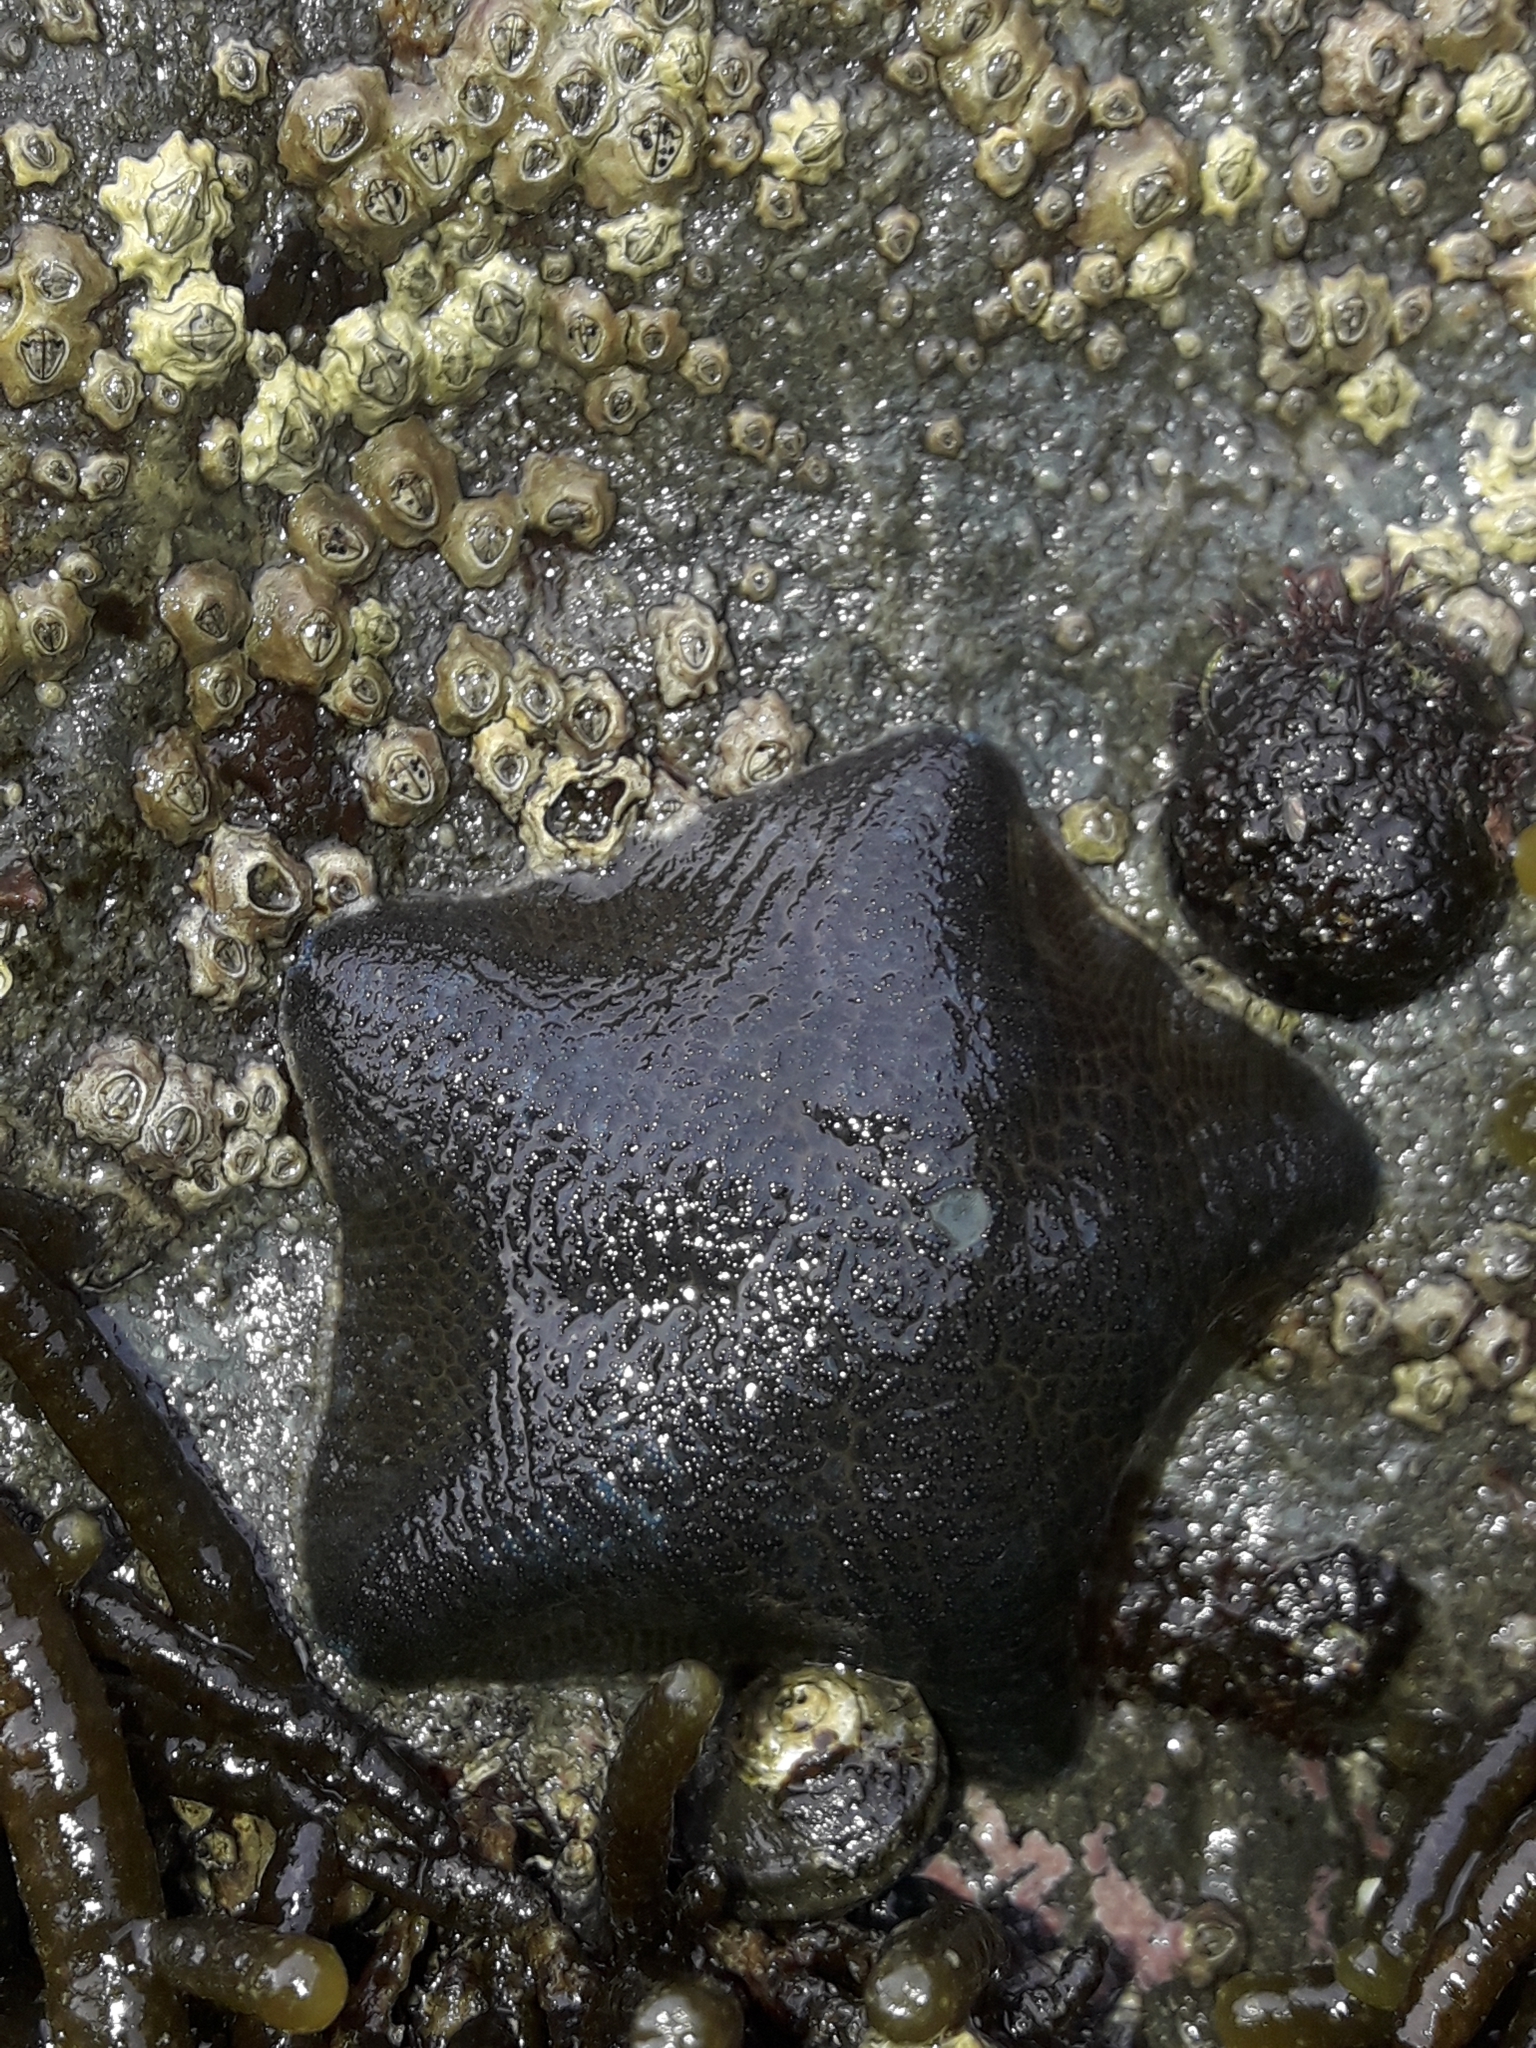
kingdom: Animalia
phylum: Echinodermata
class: Asteroidea
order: Valvatida
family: Asterinidae
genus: Patiriella
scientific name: Patiriella regularis
